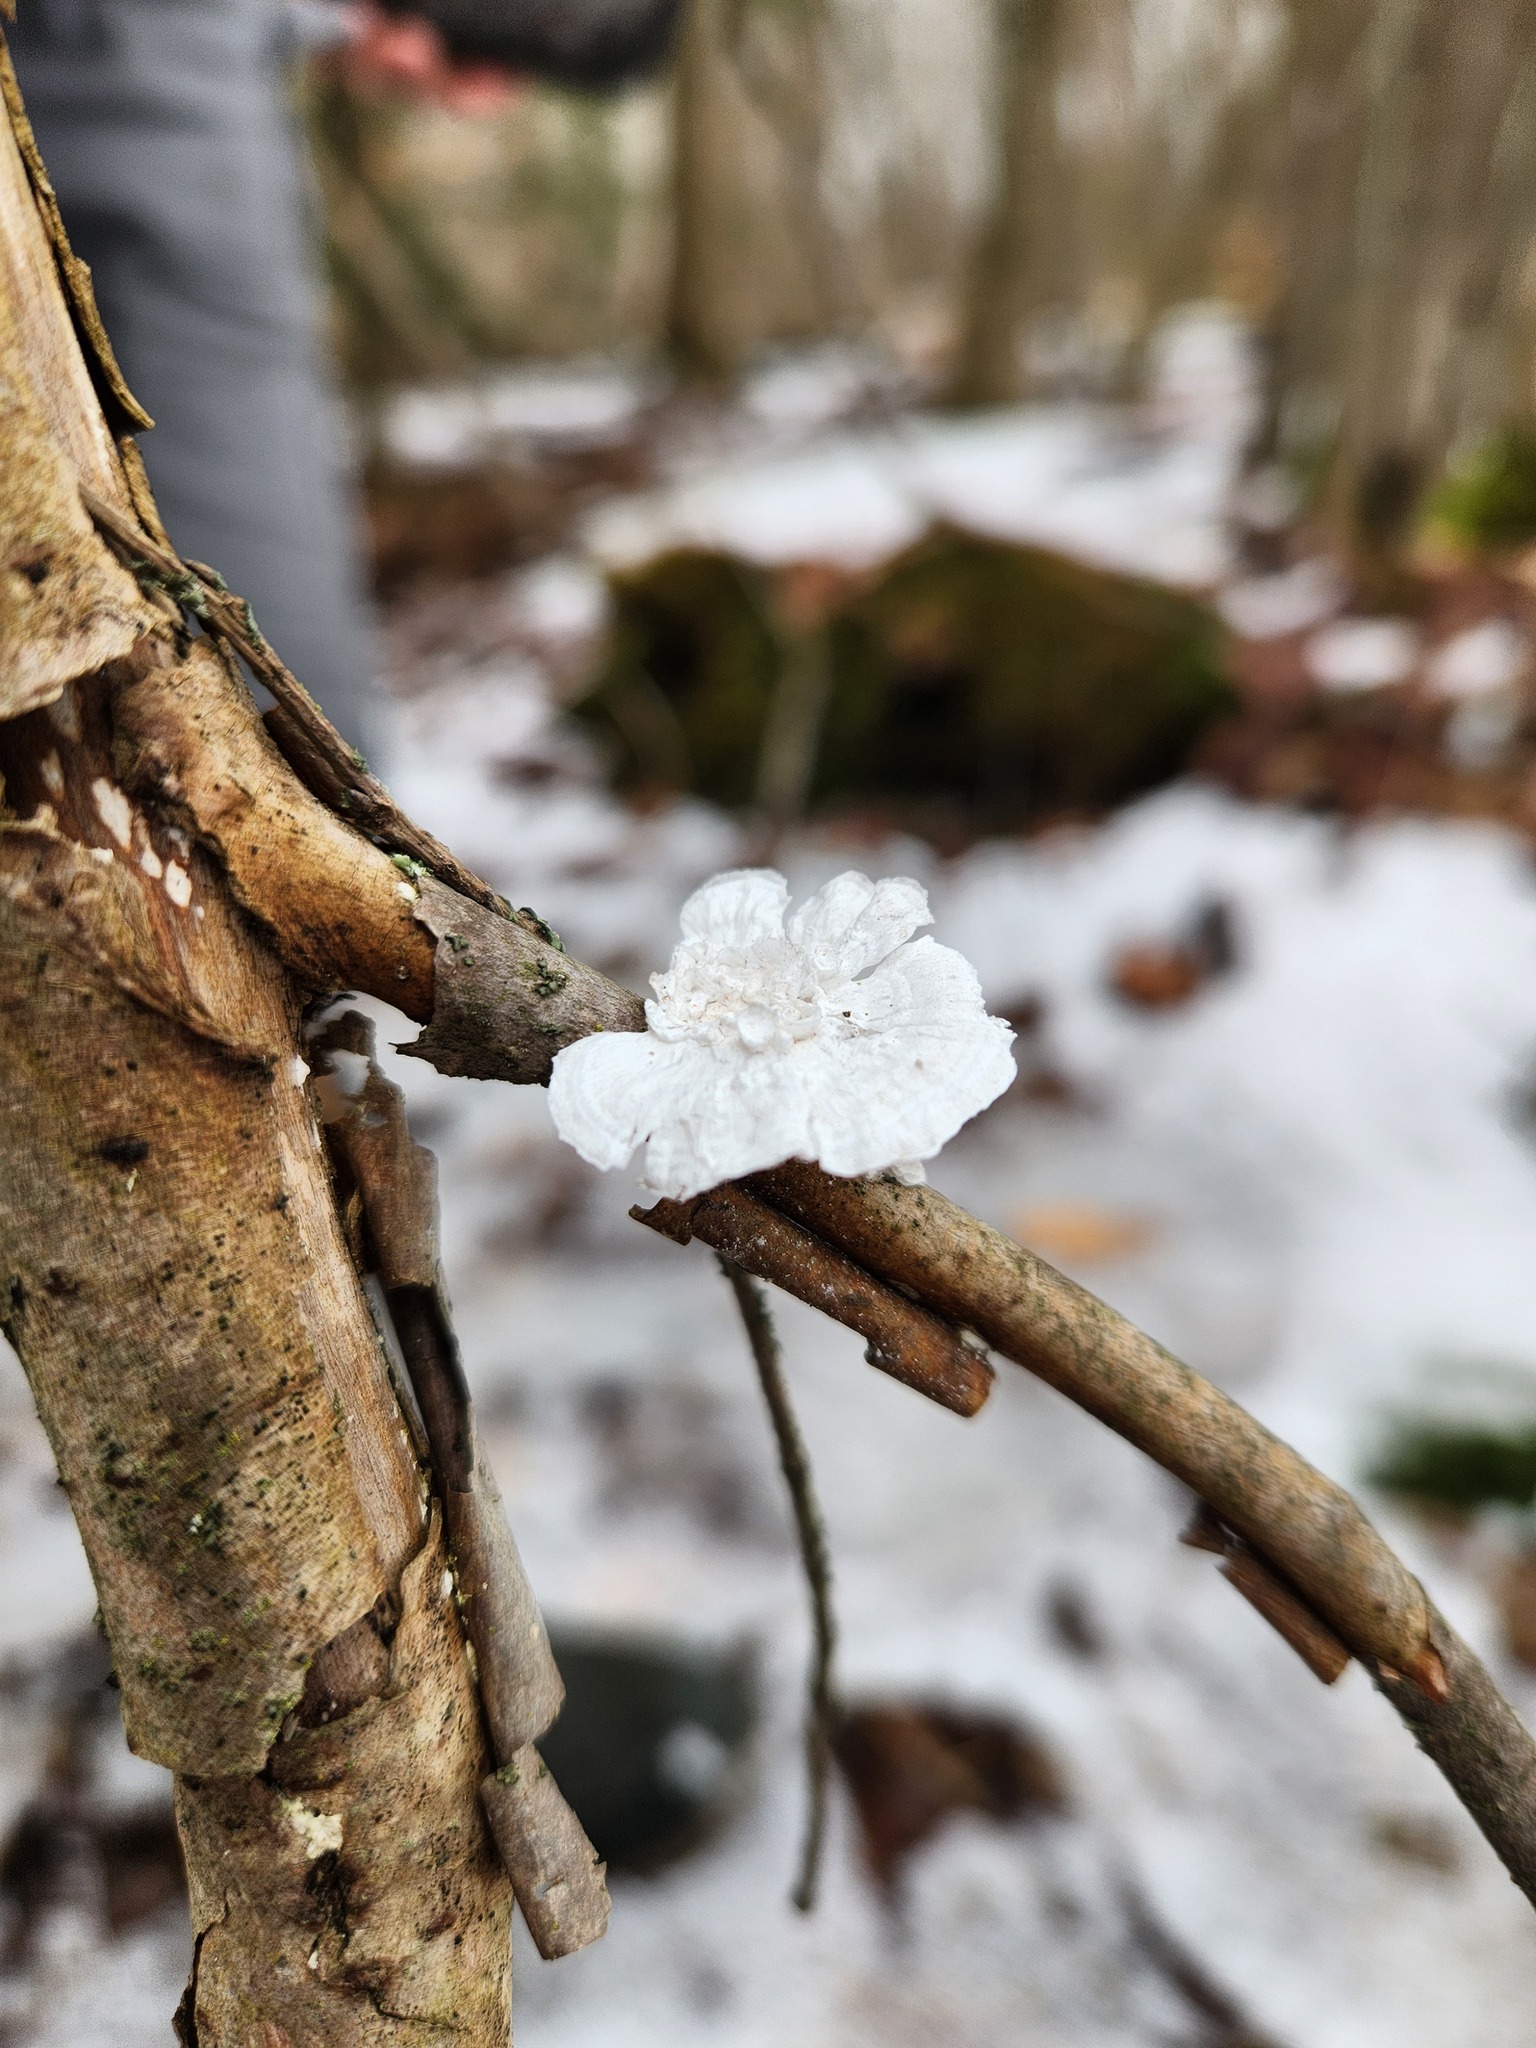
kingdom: Fungi
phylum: Basidiomycota
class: Agaricomycetes
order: Polyporales
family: Polyporaceae
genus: Poronidulus
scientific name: Poronidulus conchifer
